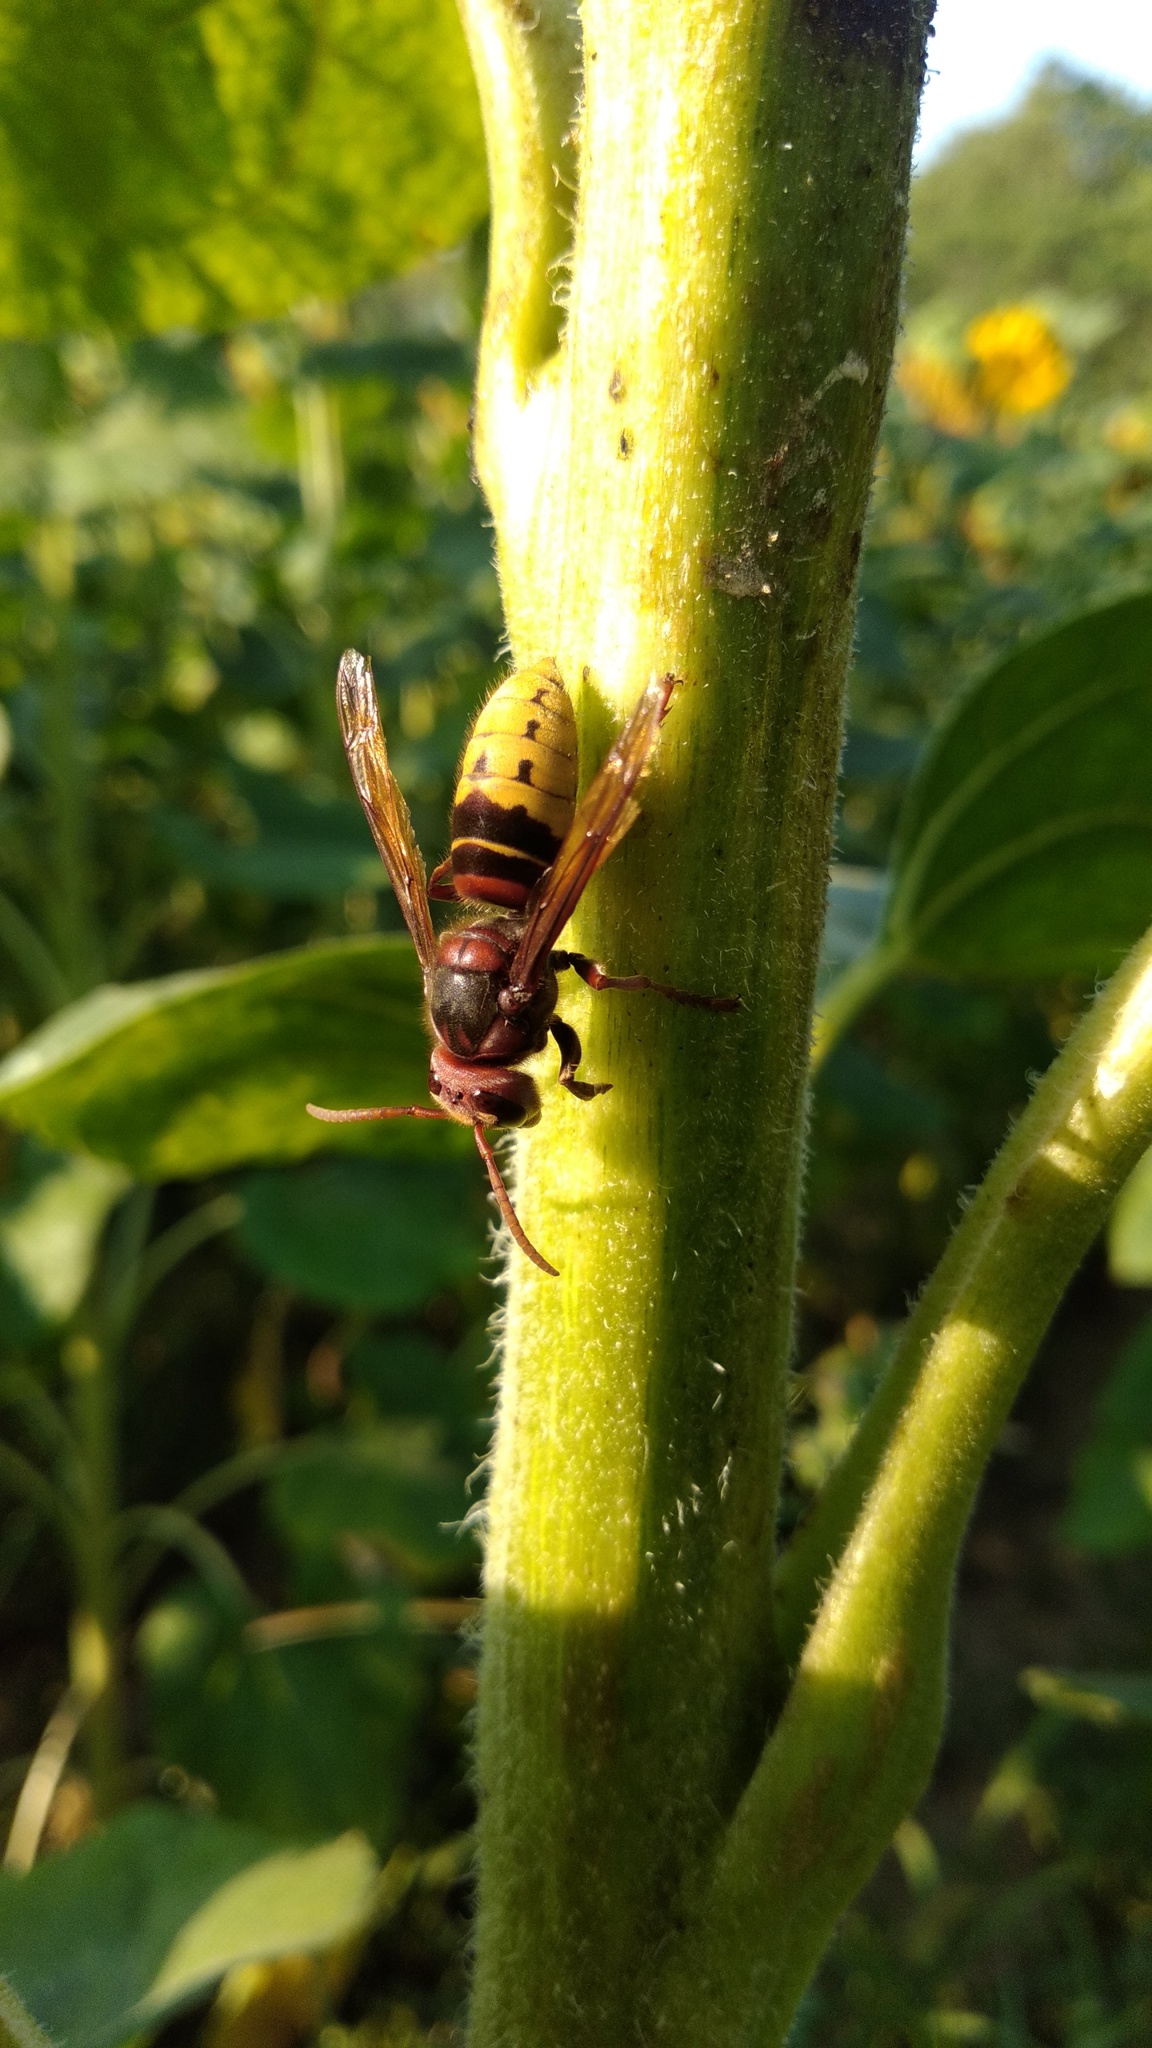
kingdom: Animalia
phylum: Arthropoda
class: Insecta
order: Hymenoptera
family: Vespidae
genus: Vespa
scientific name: Vespa crabro
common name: Hornet
